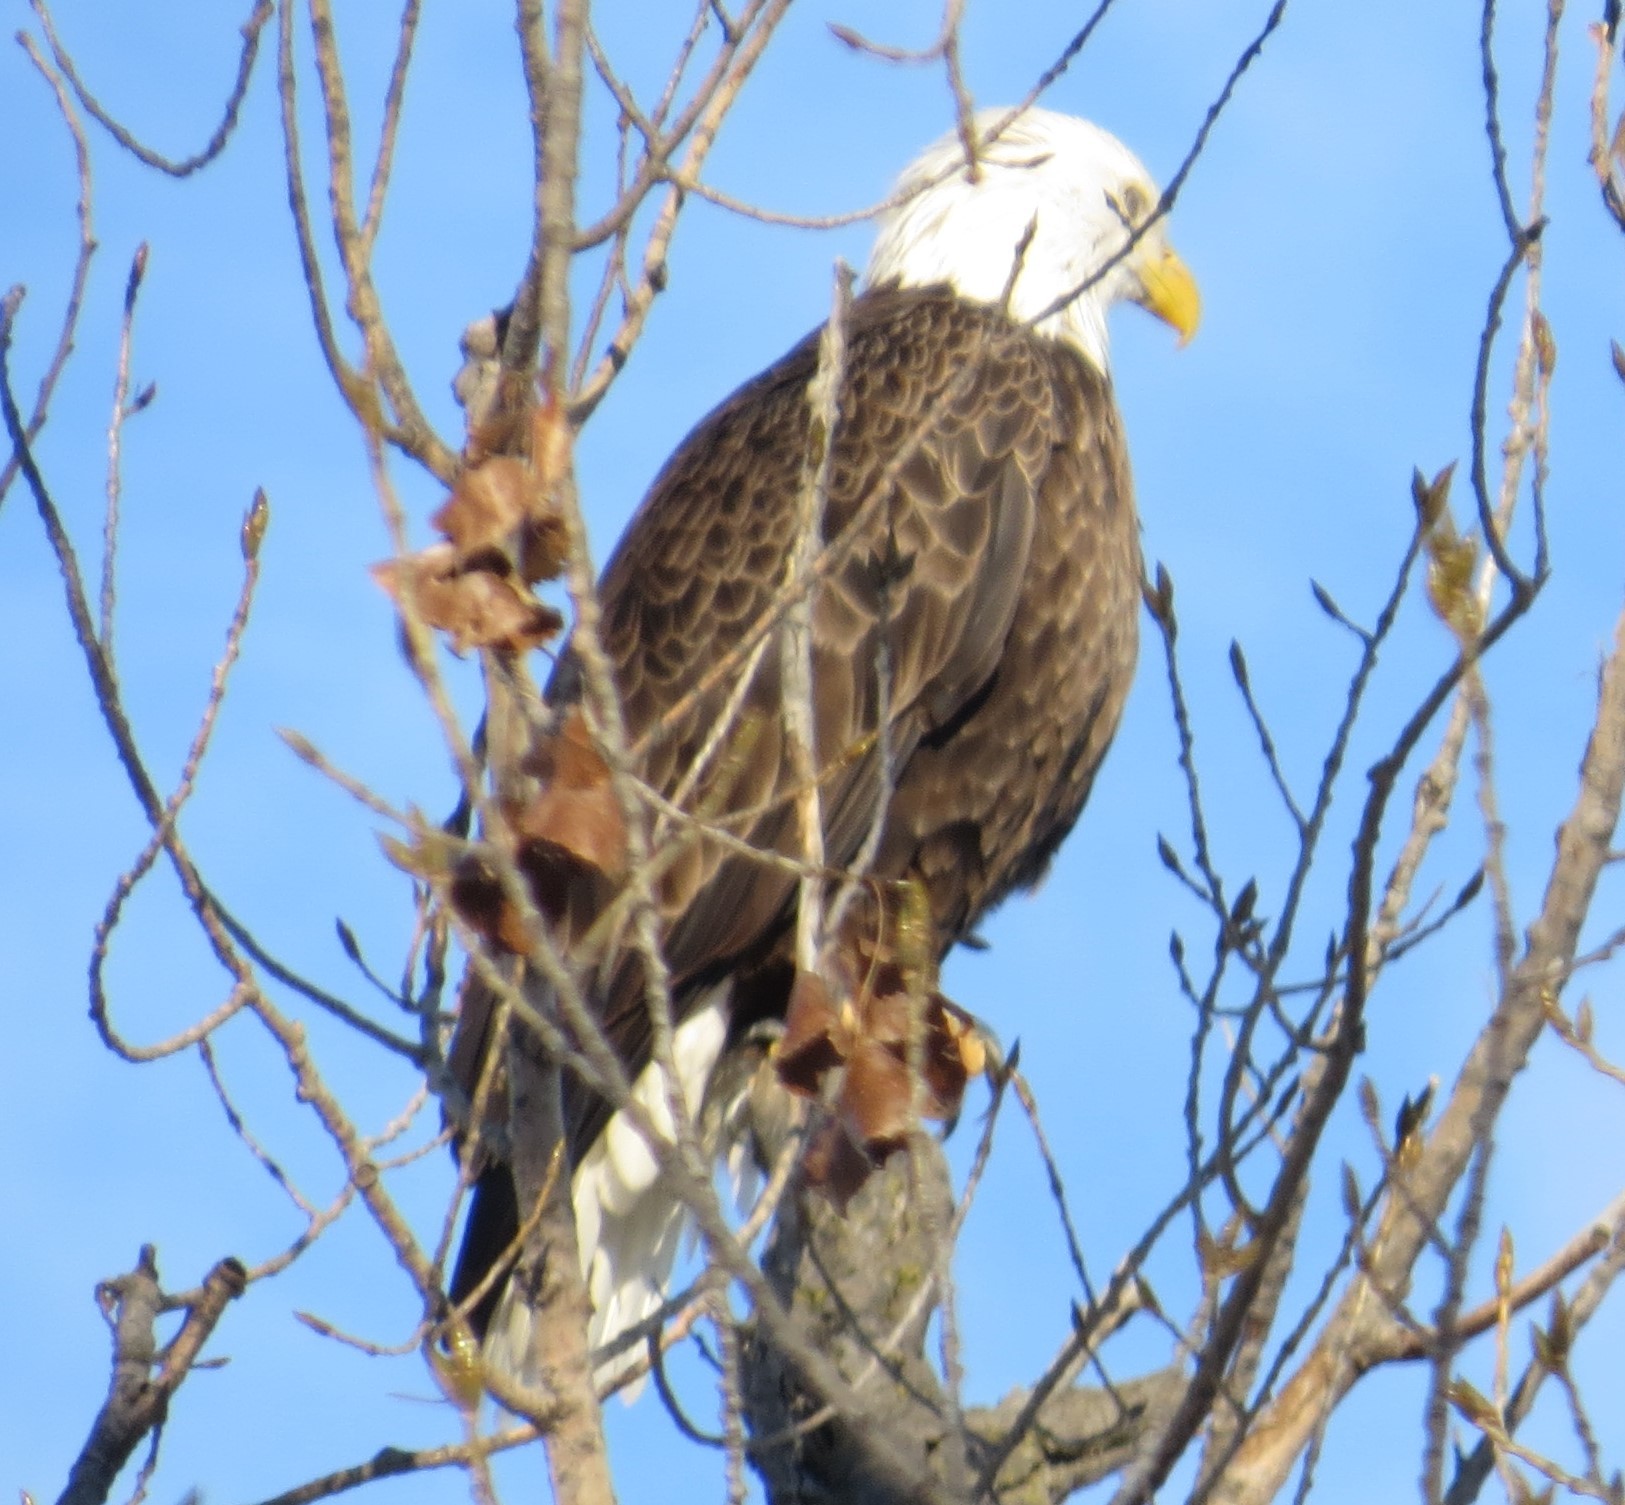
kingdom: Animalia
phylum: Chordata
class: Aves
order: Accipitriformes
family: Accipitridae
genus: Haliaeetus
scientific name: Haliaeetus leucocephalus
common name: Bald eagle
